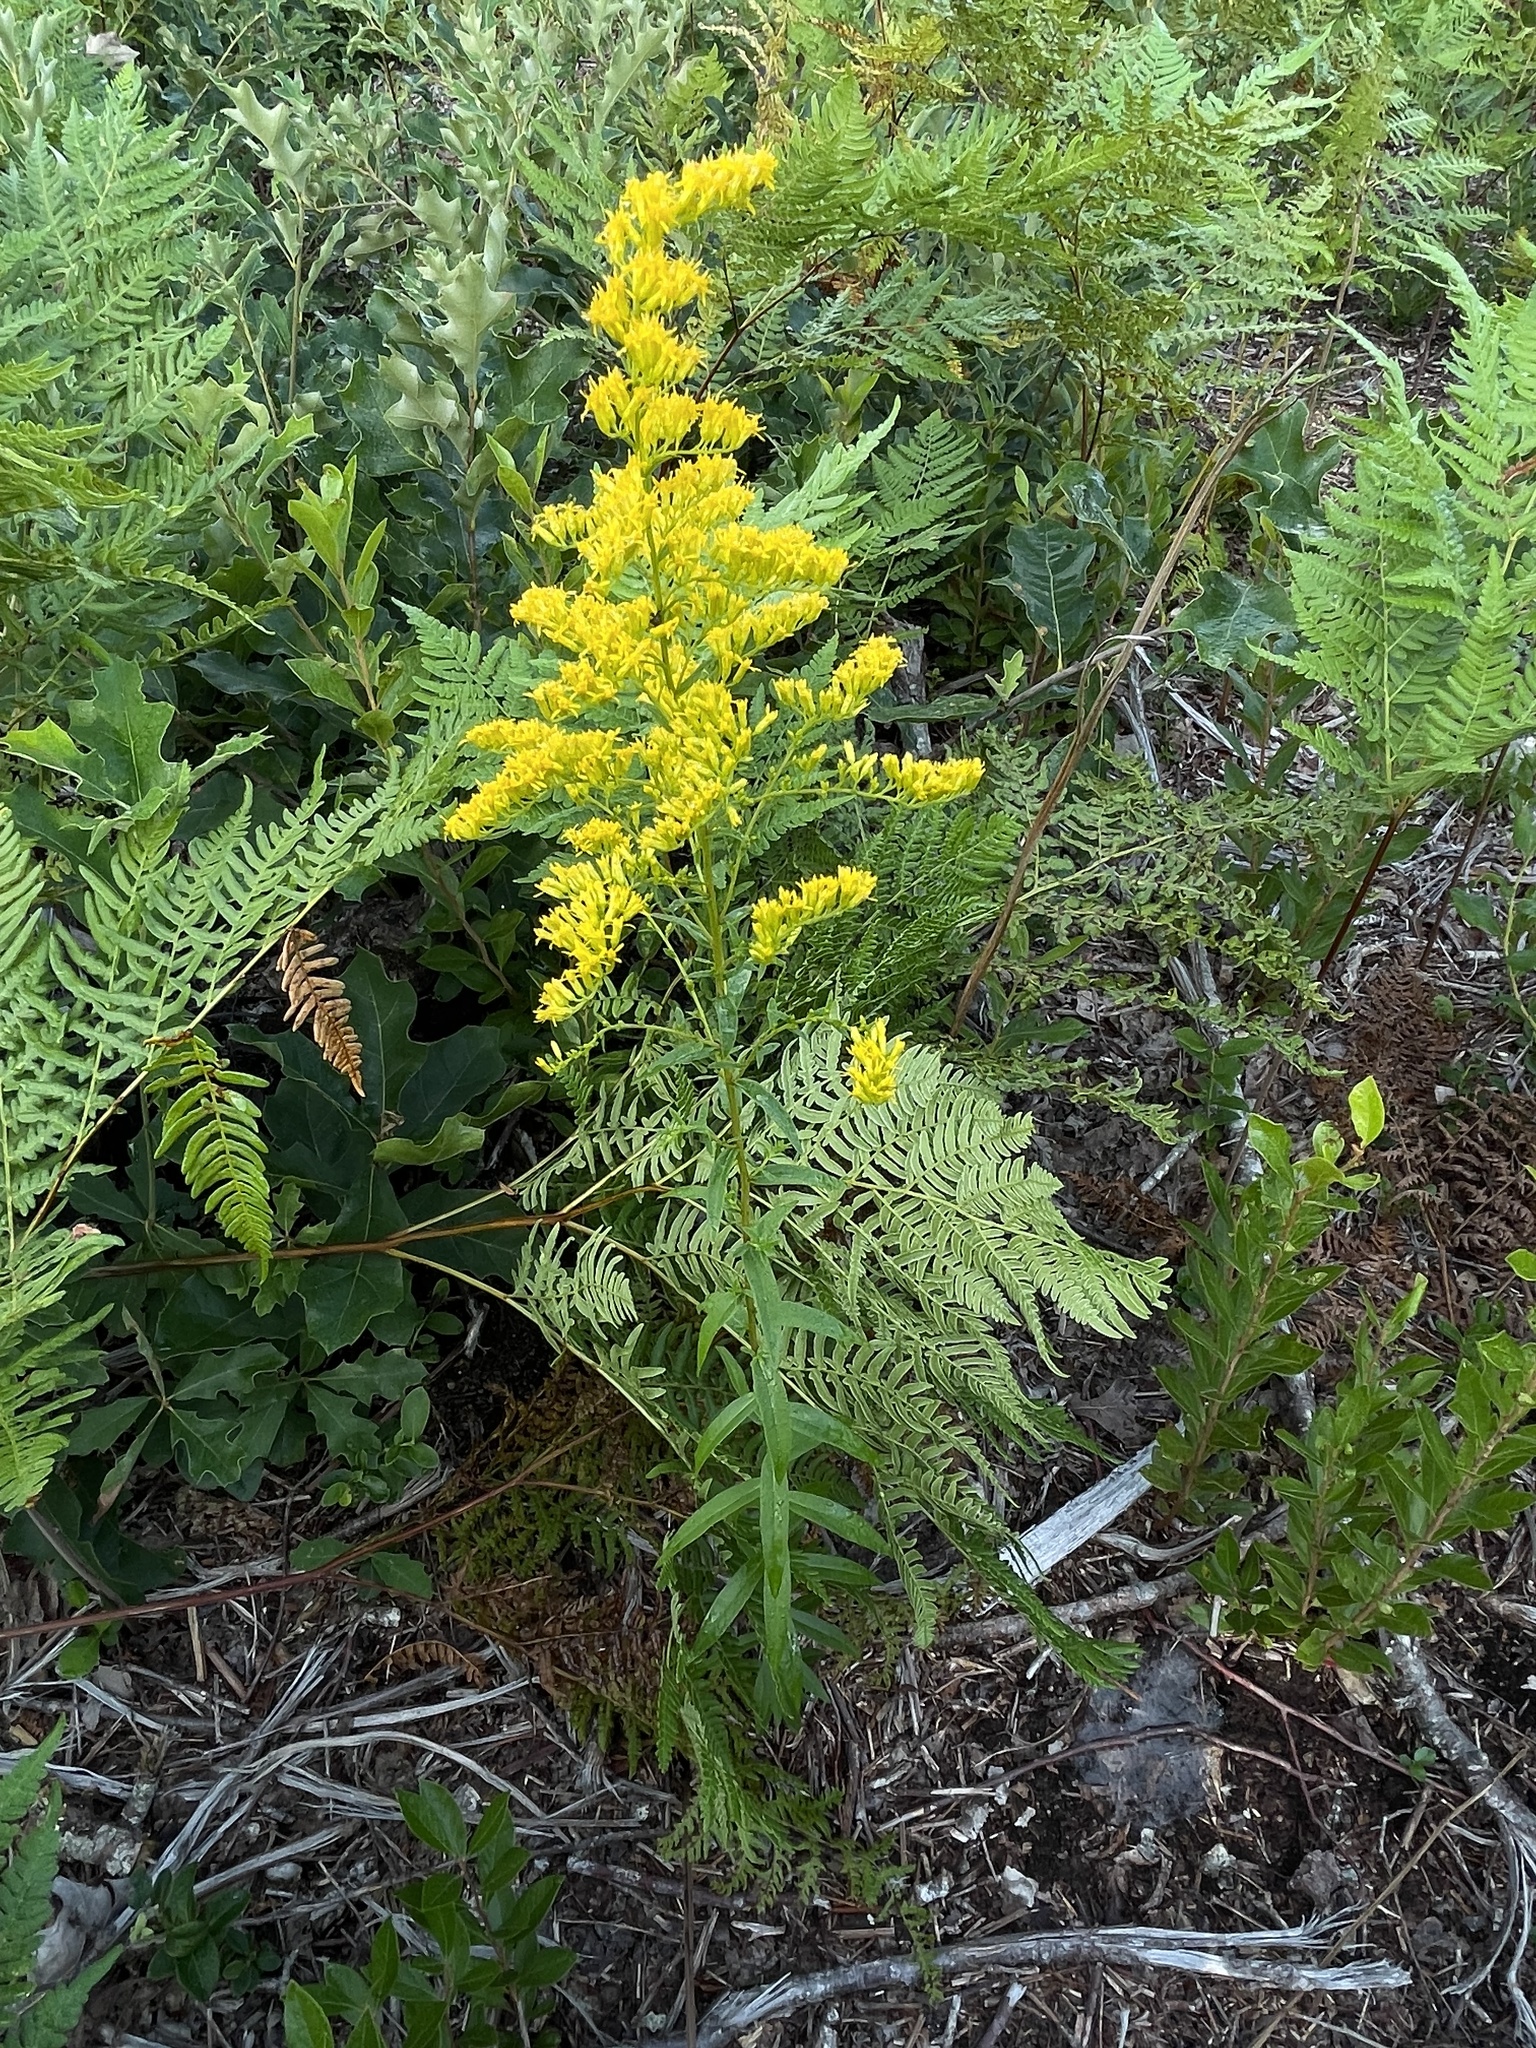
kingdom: Plantae
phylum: Tracheophyta
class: Magnoliopsida
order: Asterales
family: Asteraceae
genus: Solidago
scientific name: Solidago odora
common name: Anise-scented goldenrod
